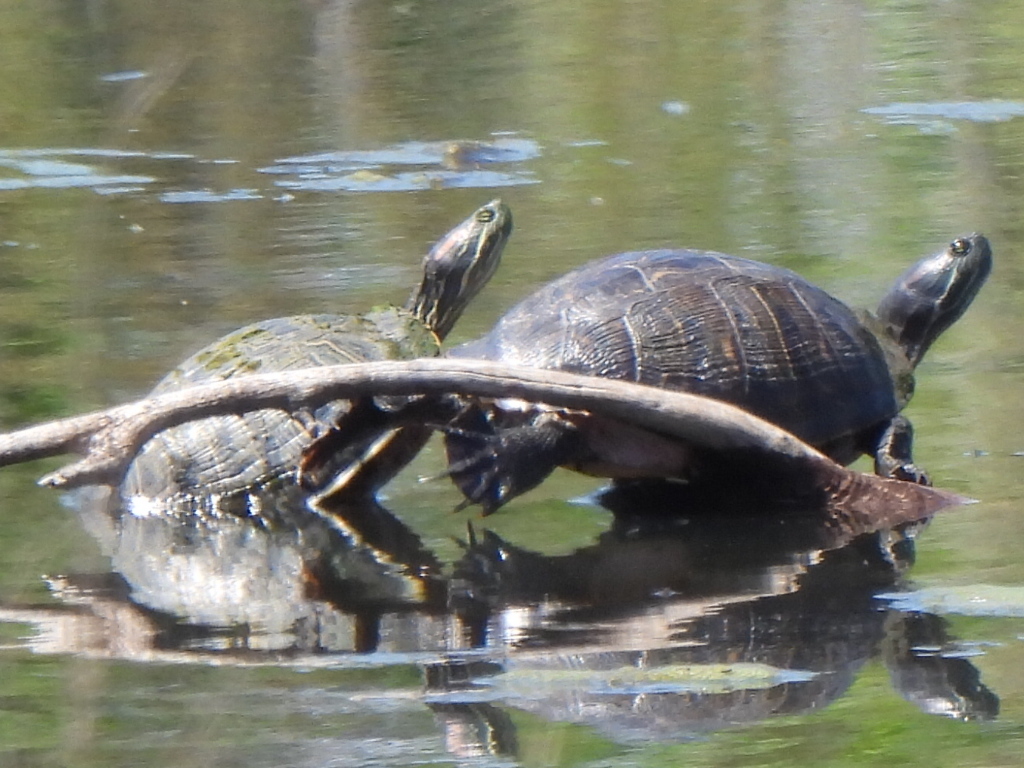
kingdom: Animalia
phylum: Chordata
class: Testudines
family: Emydidae
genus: Trachemys
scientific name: Trachemys scripta
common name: Slider
